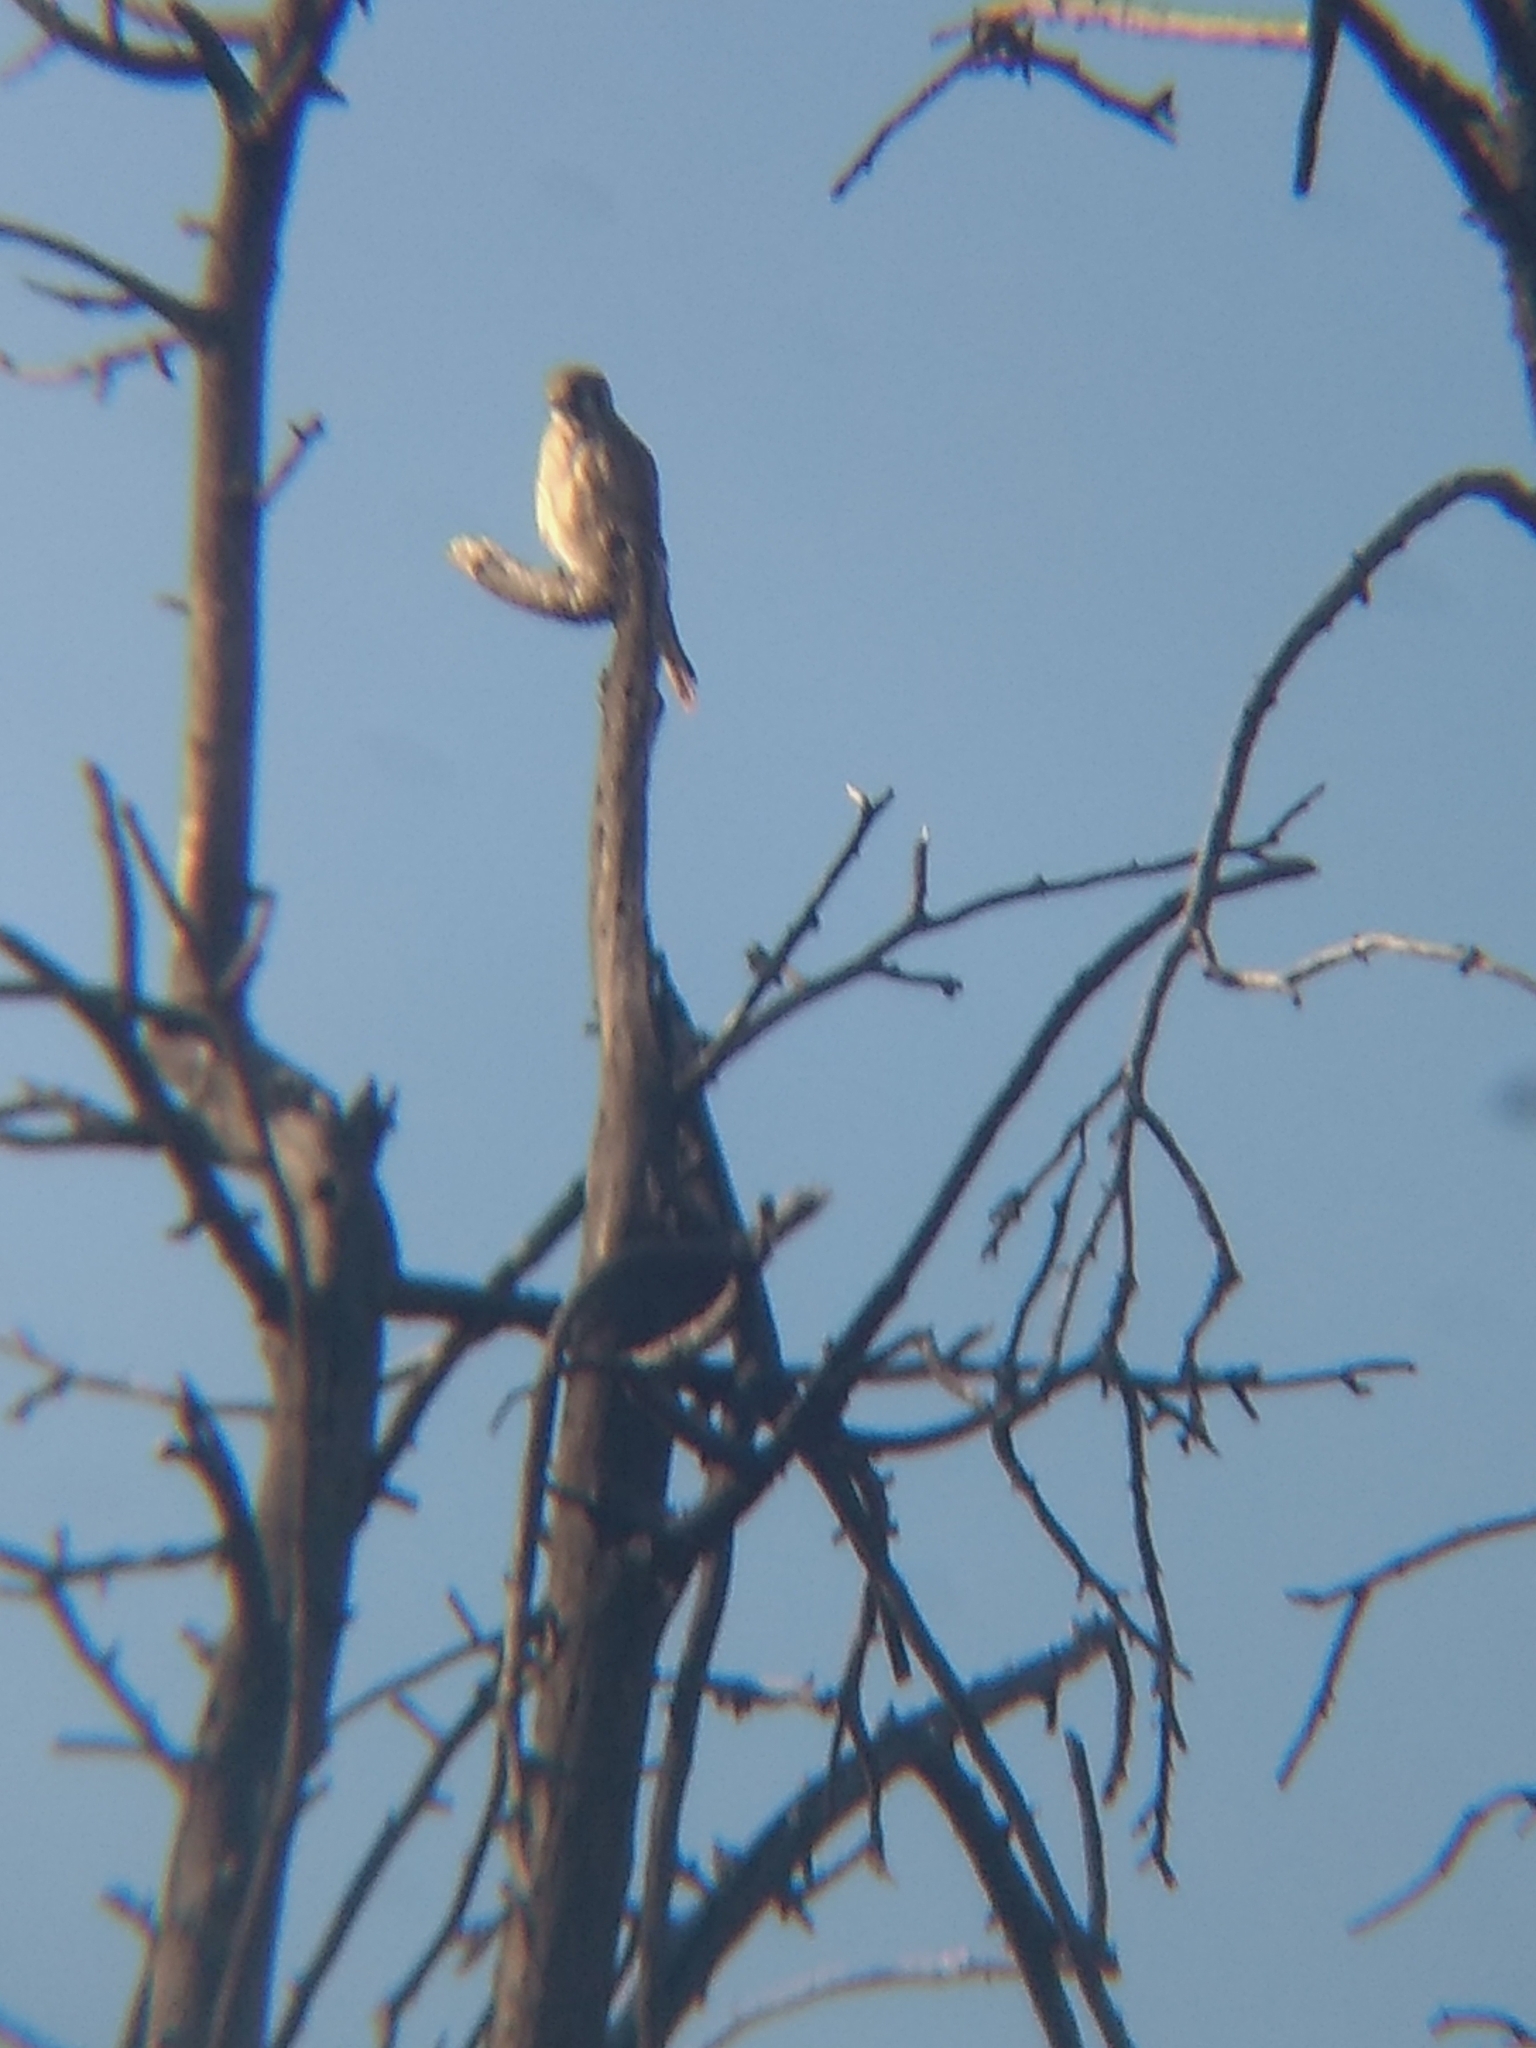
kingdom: Animalia
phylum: Chordata
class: Aves
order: Falconiformes
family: Falconidae
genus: Falco
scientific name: Falco sparverius
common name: American kestrel
